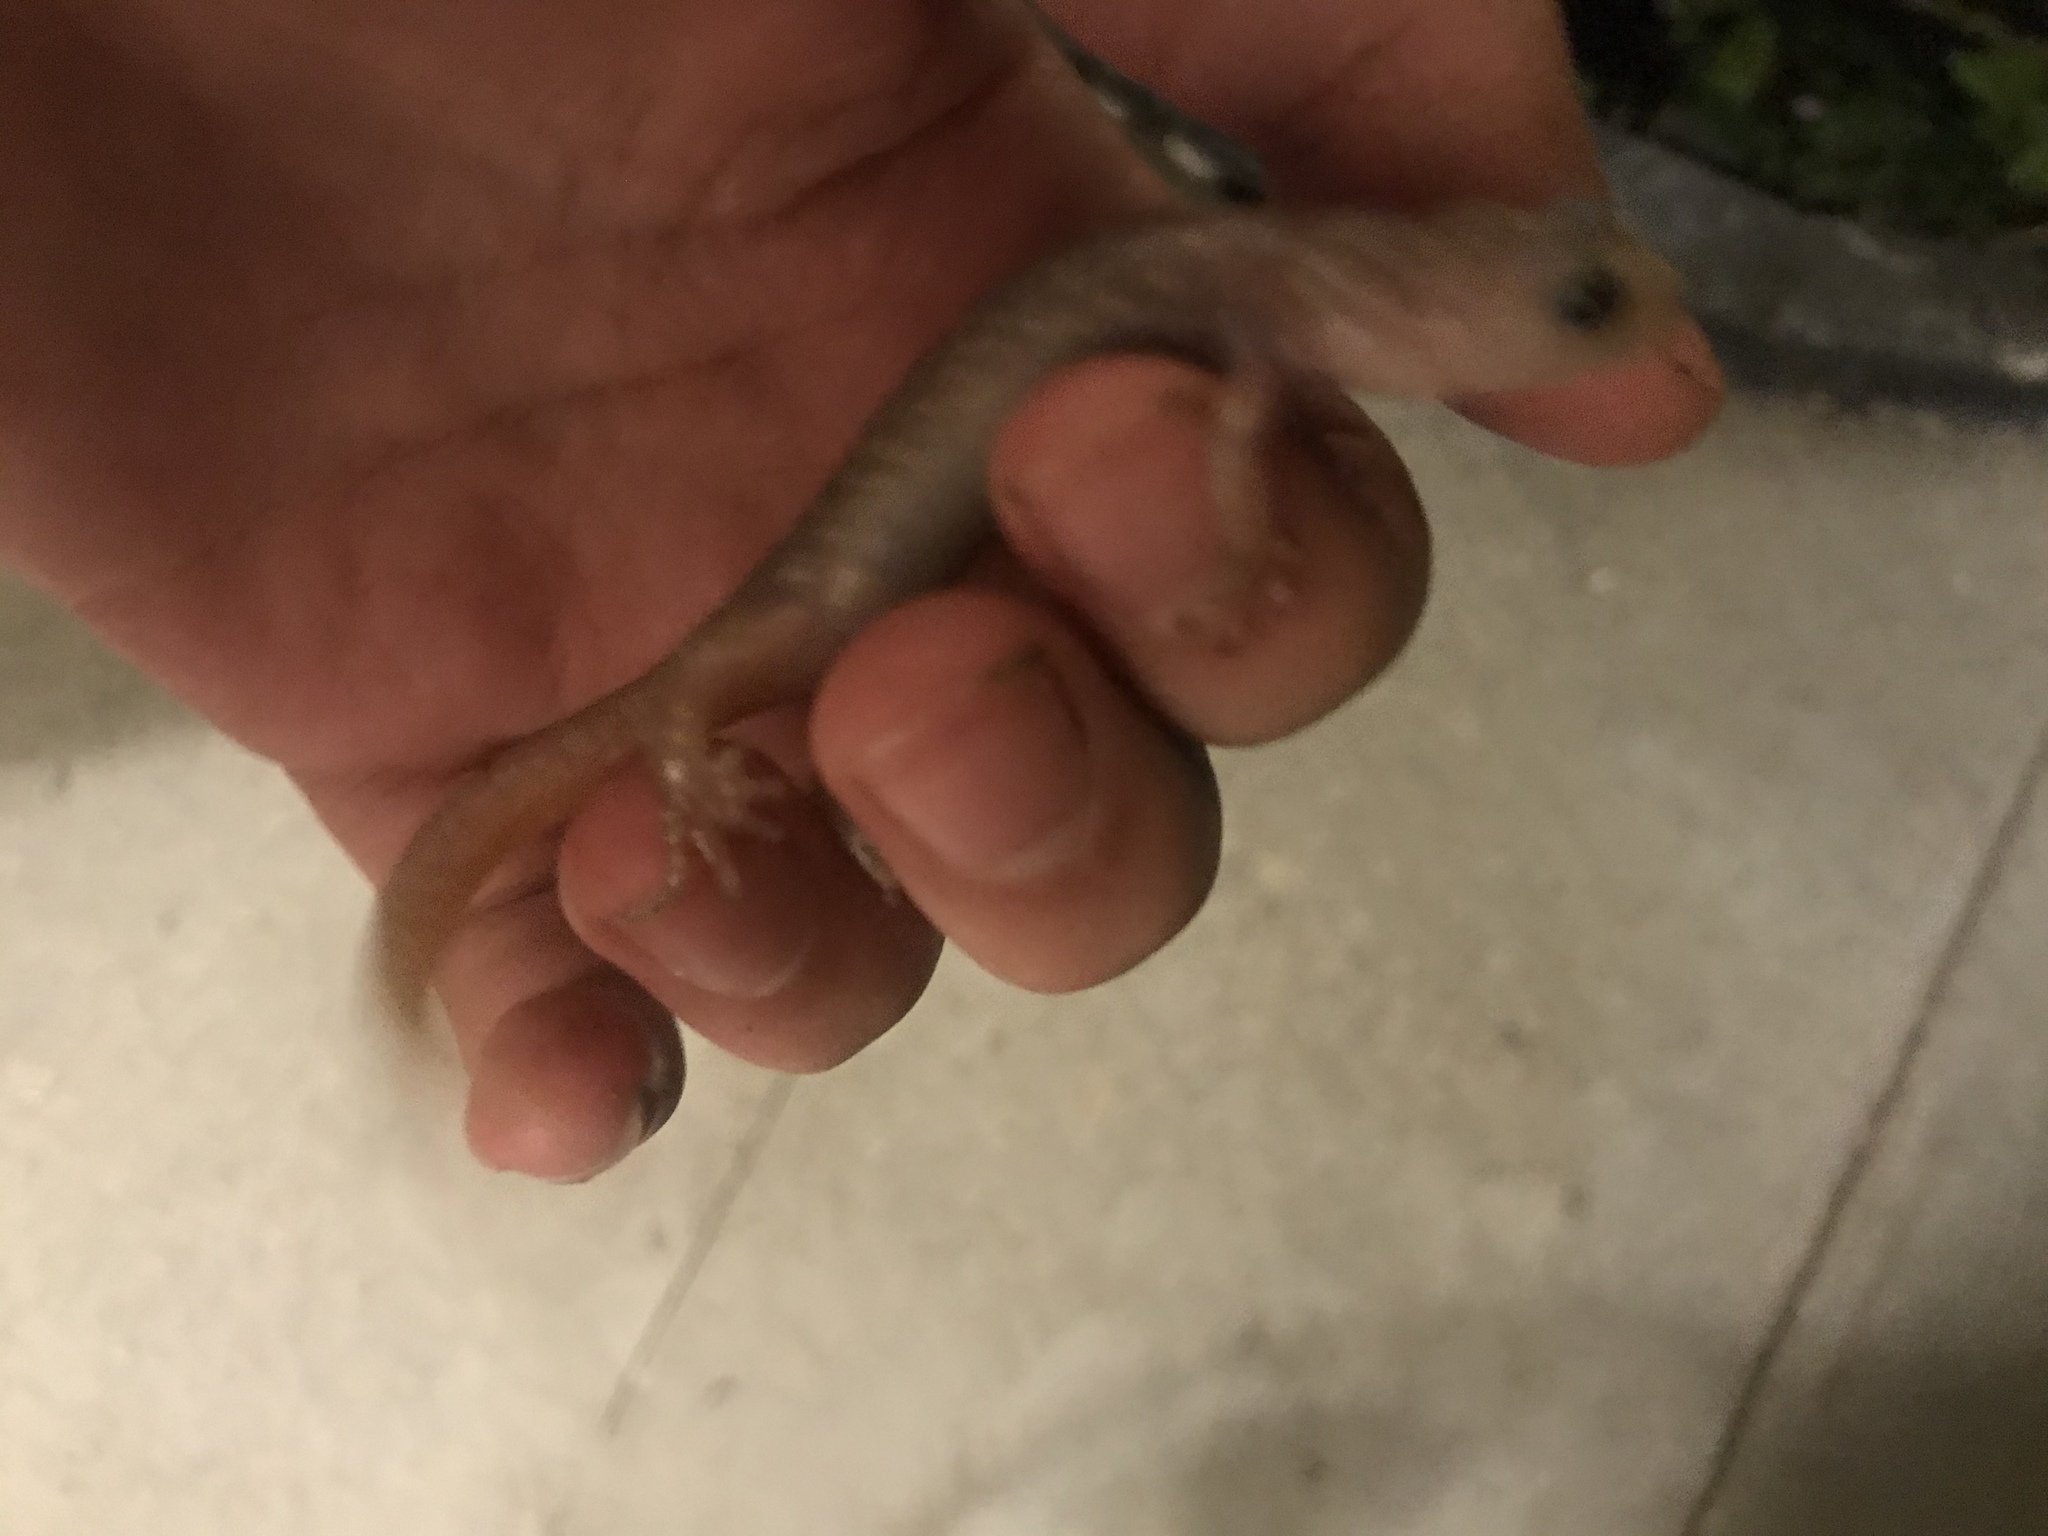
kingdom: Animalia
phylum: Chordata
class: Amphibia
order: Caudata
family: Plethodontidae
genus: Aneides
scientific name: Aneides lugubris
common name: Arboreal salamander
